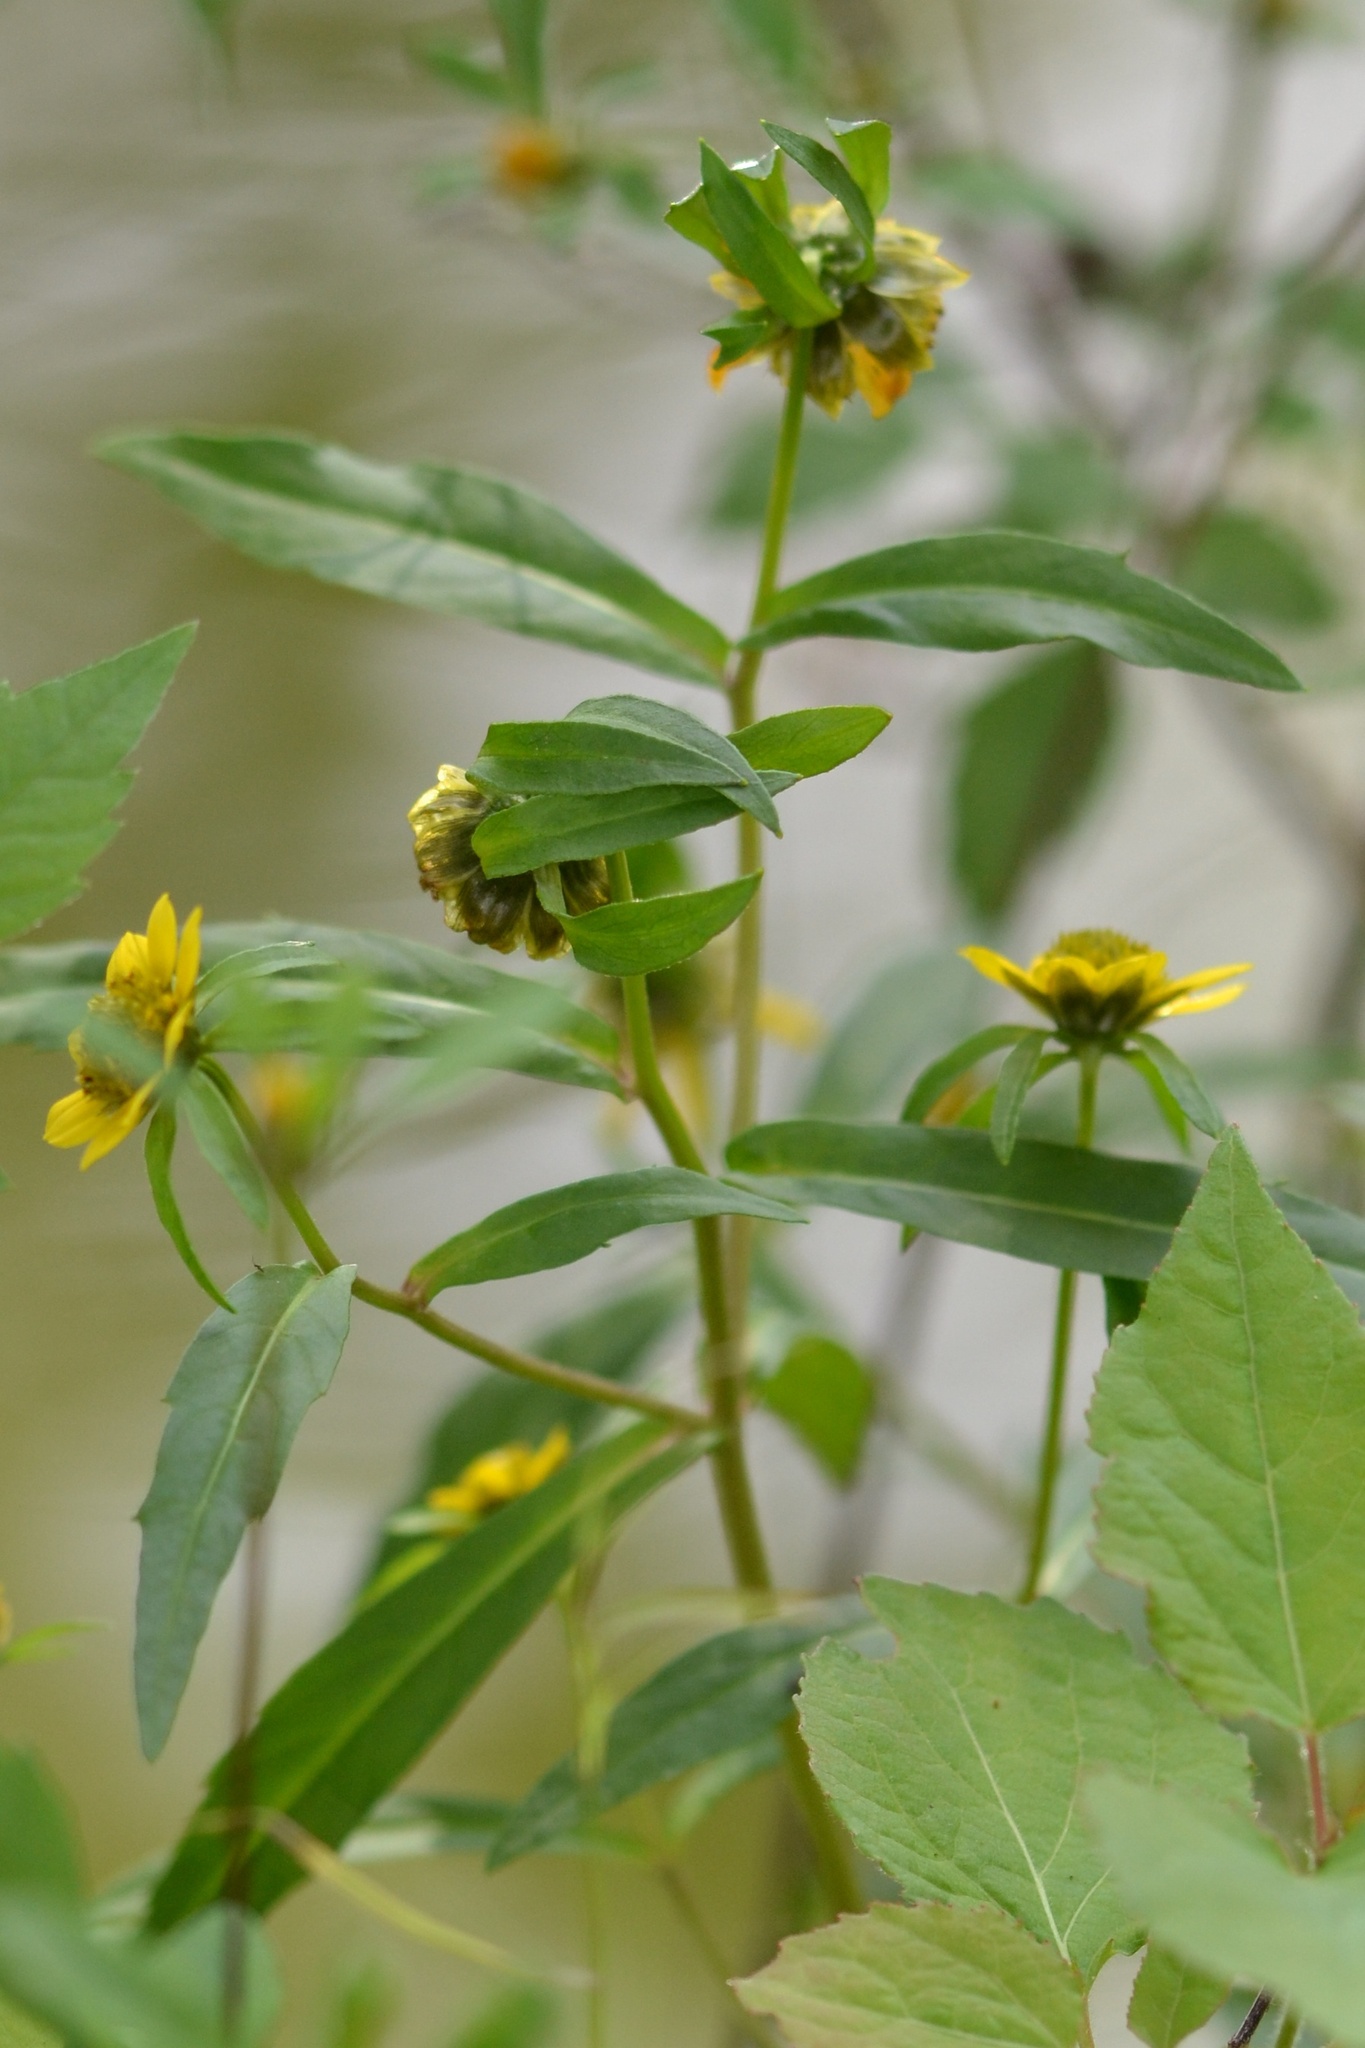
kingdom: Plantae
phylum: Tracheophyta
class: Magnoliopsida
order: Asterales
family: Asteraceae
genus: Bidens
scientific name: Bidens cernua
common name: Nodding bur-marigold
